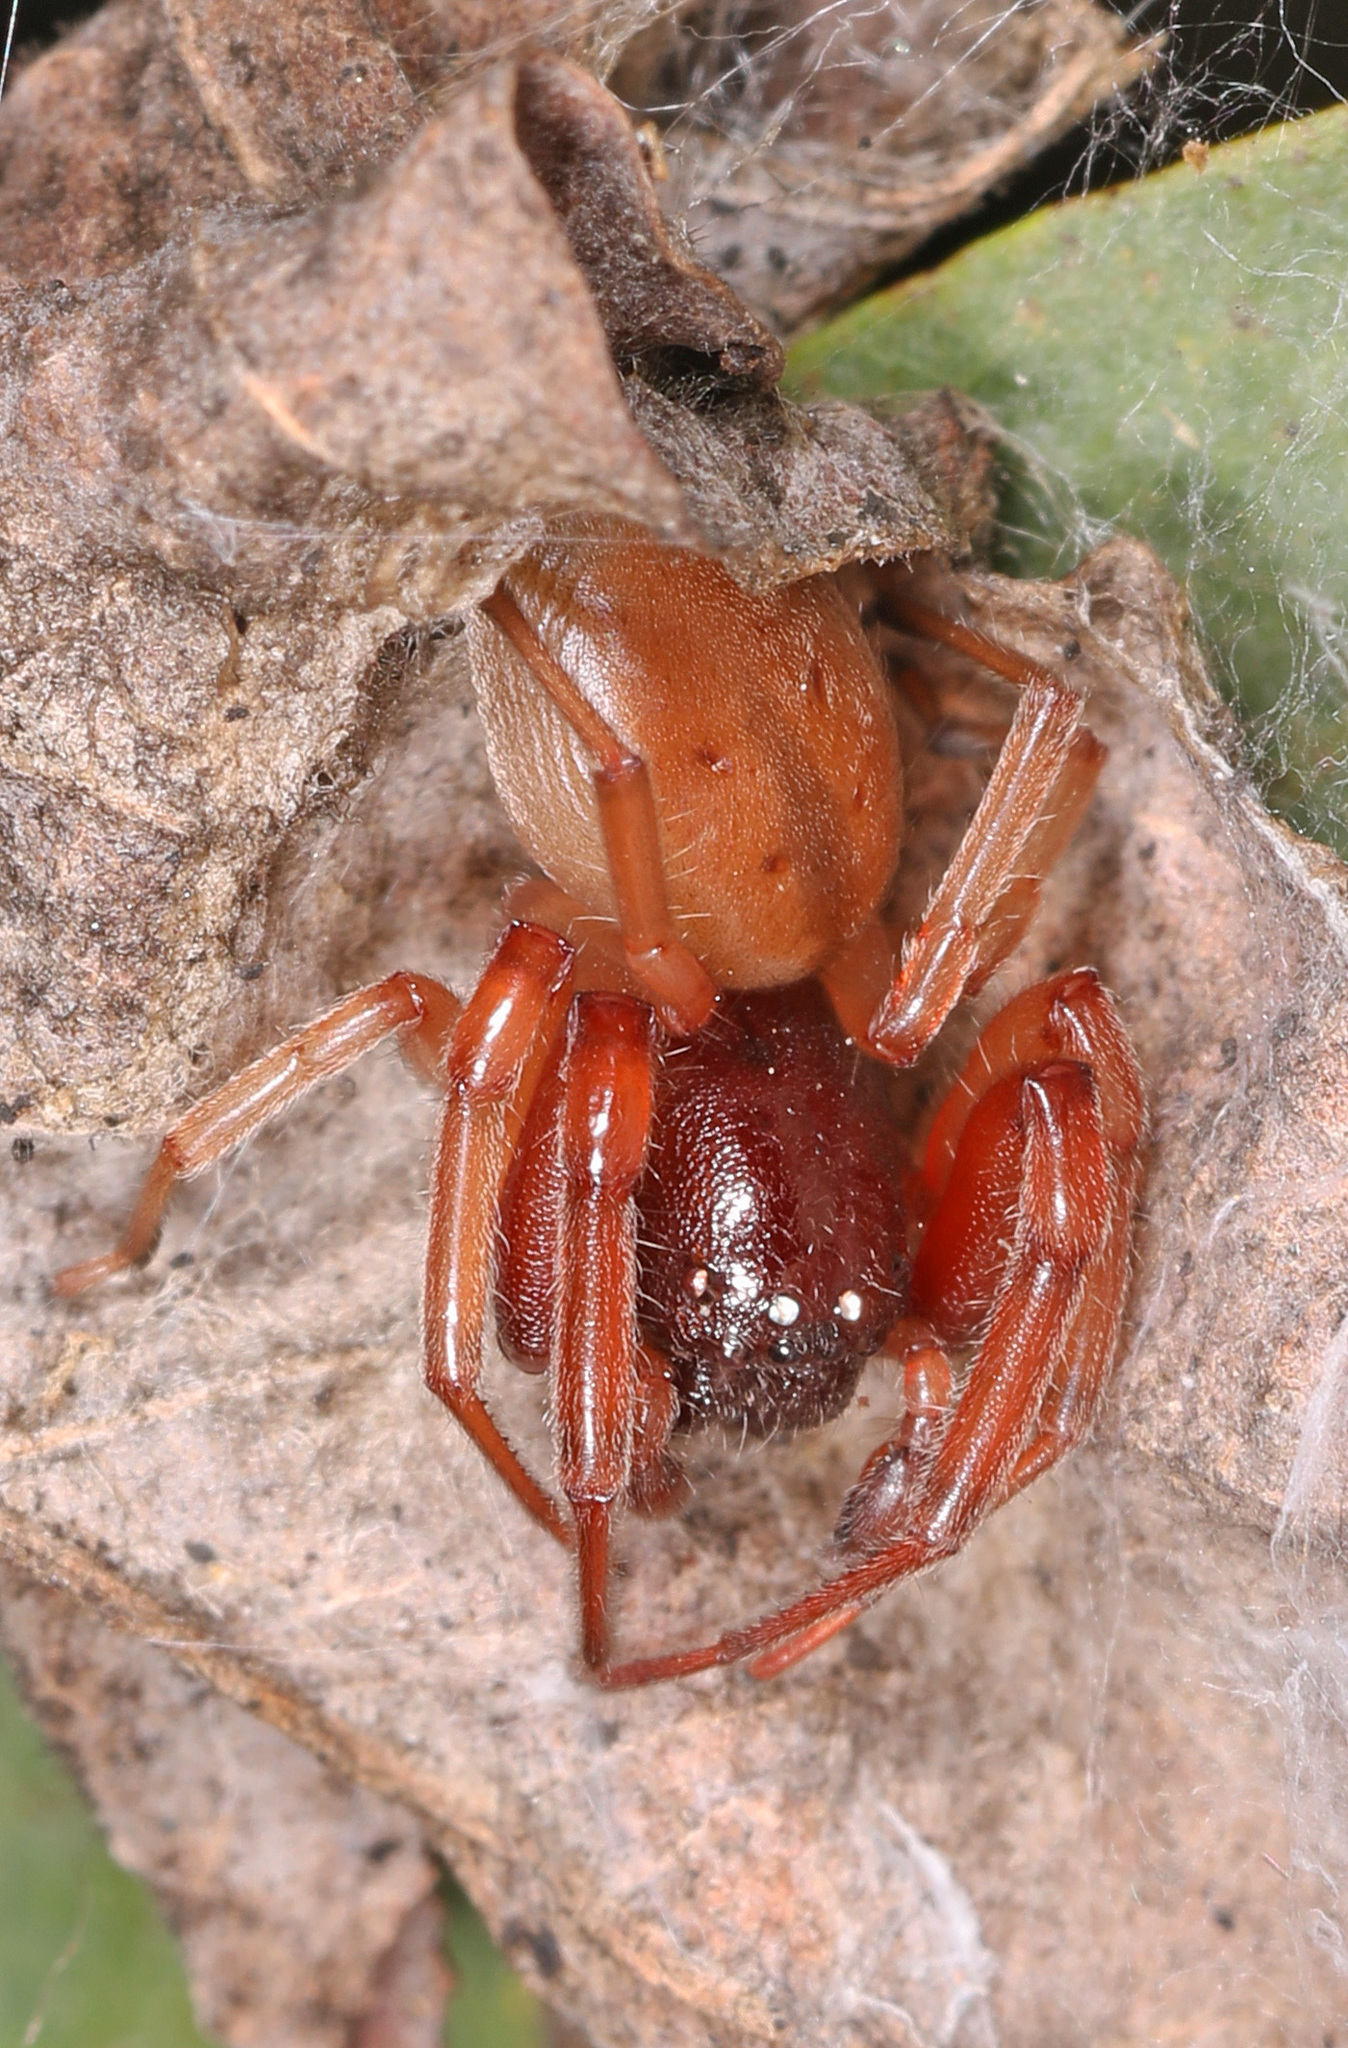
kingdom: Animalia
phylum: Arthropoda
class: Arachnida
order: Araneae
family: Trachelidae
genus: Trachelas
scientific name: Trachelas tranquillus
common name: Broad-faced sac spider
